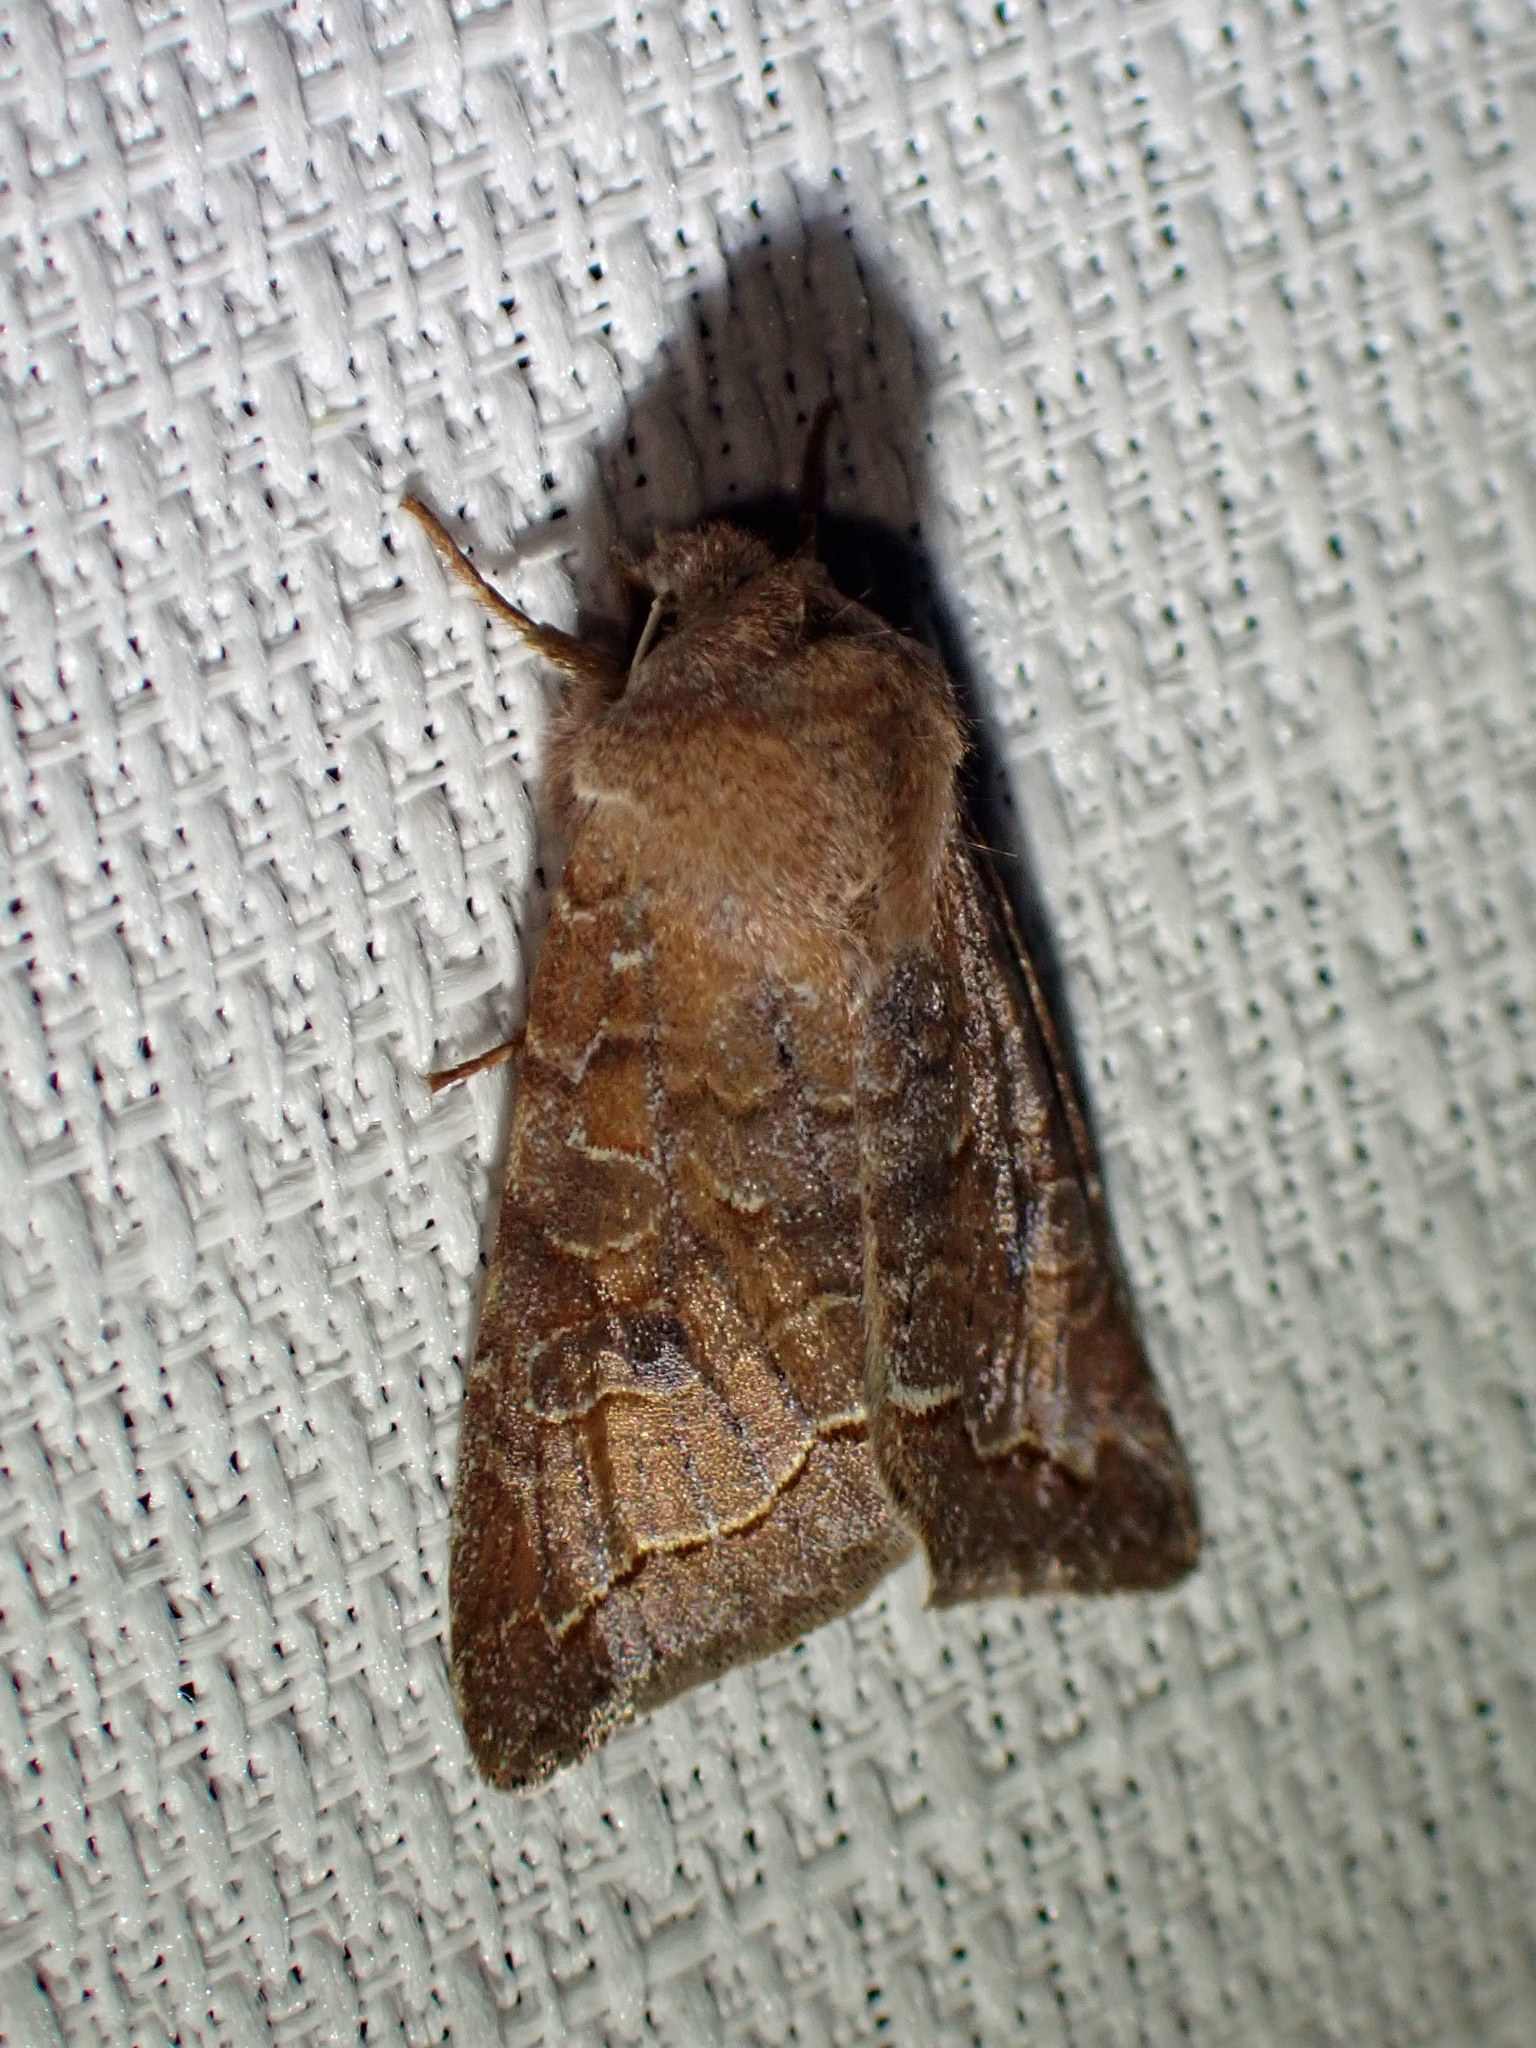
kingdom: Animalia
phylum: Arthropoda
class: Insecta
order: Lepidoptera
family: Noctuidae
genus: Orthosia
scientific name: Orthosia revicta
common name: Rusty whitesided caterpillar
